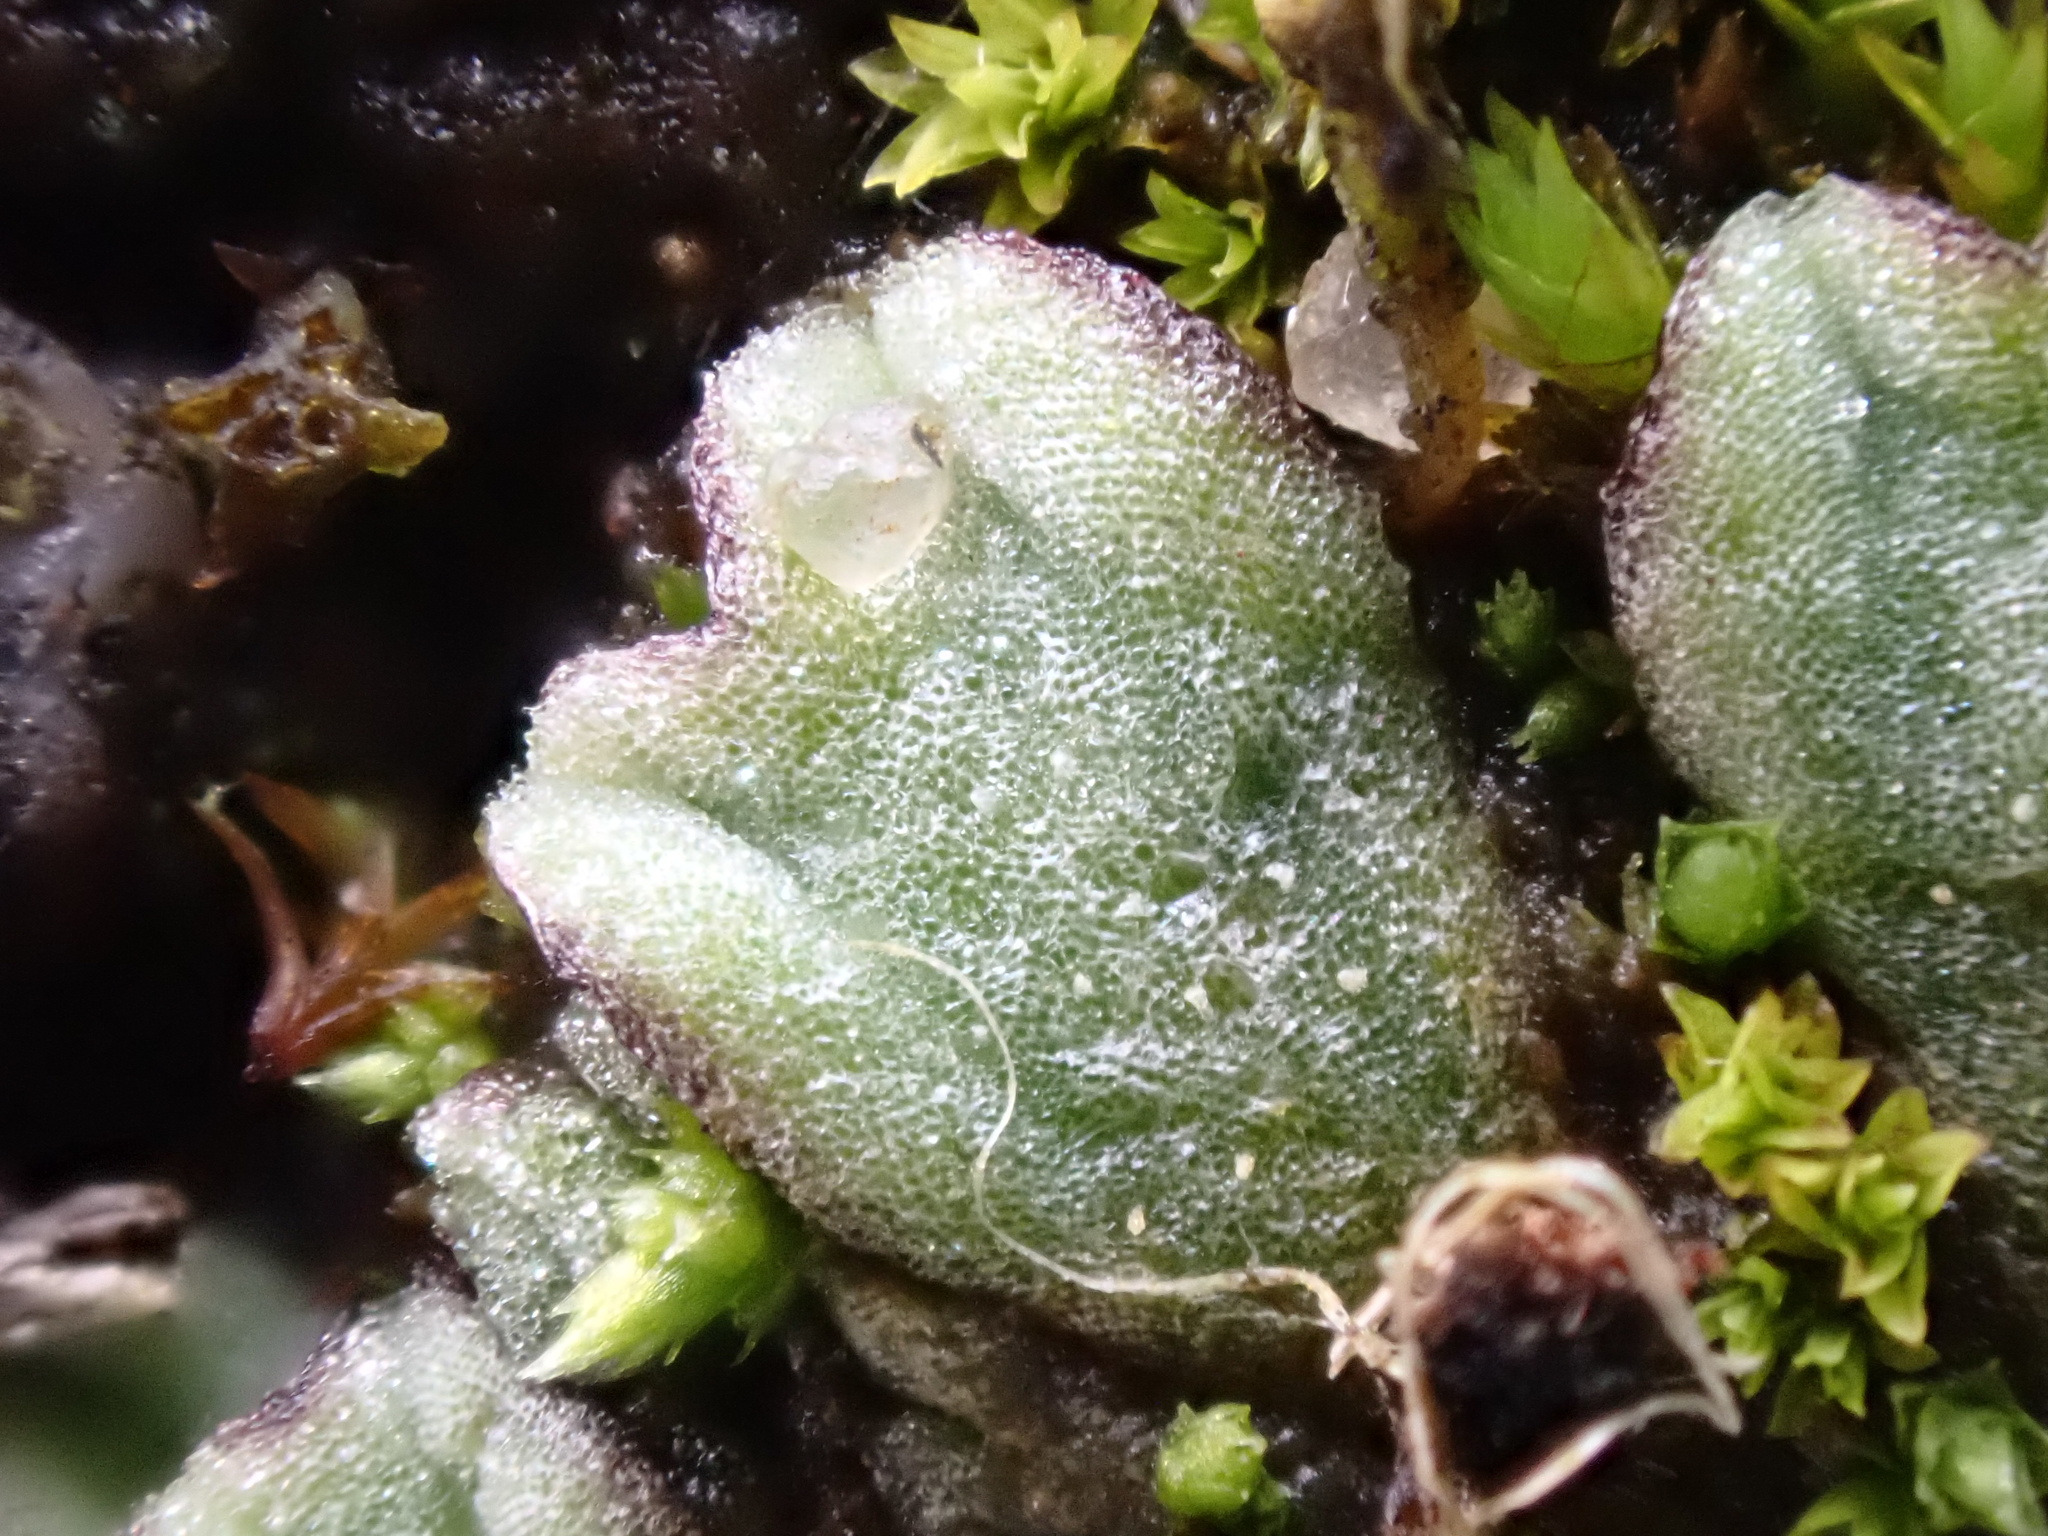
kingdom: Plantae
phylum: Marchantiophyta
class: Marchantiopsida
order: Marchantiales
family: Ricciaceae
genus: Riccia
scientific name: Riccia bifurca
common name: Lizard crystalwort
